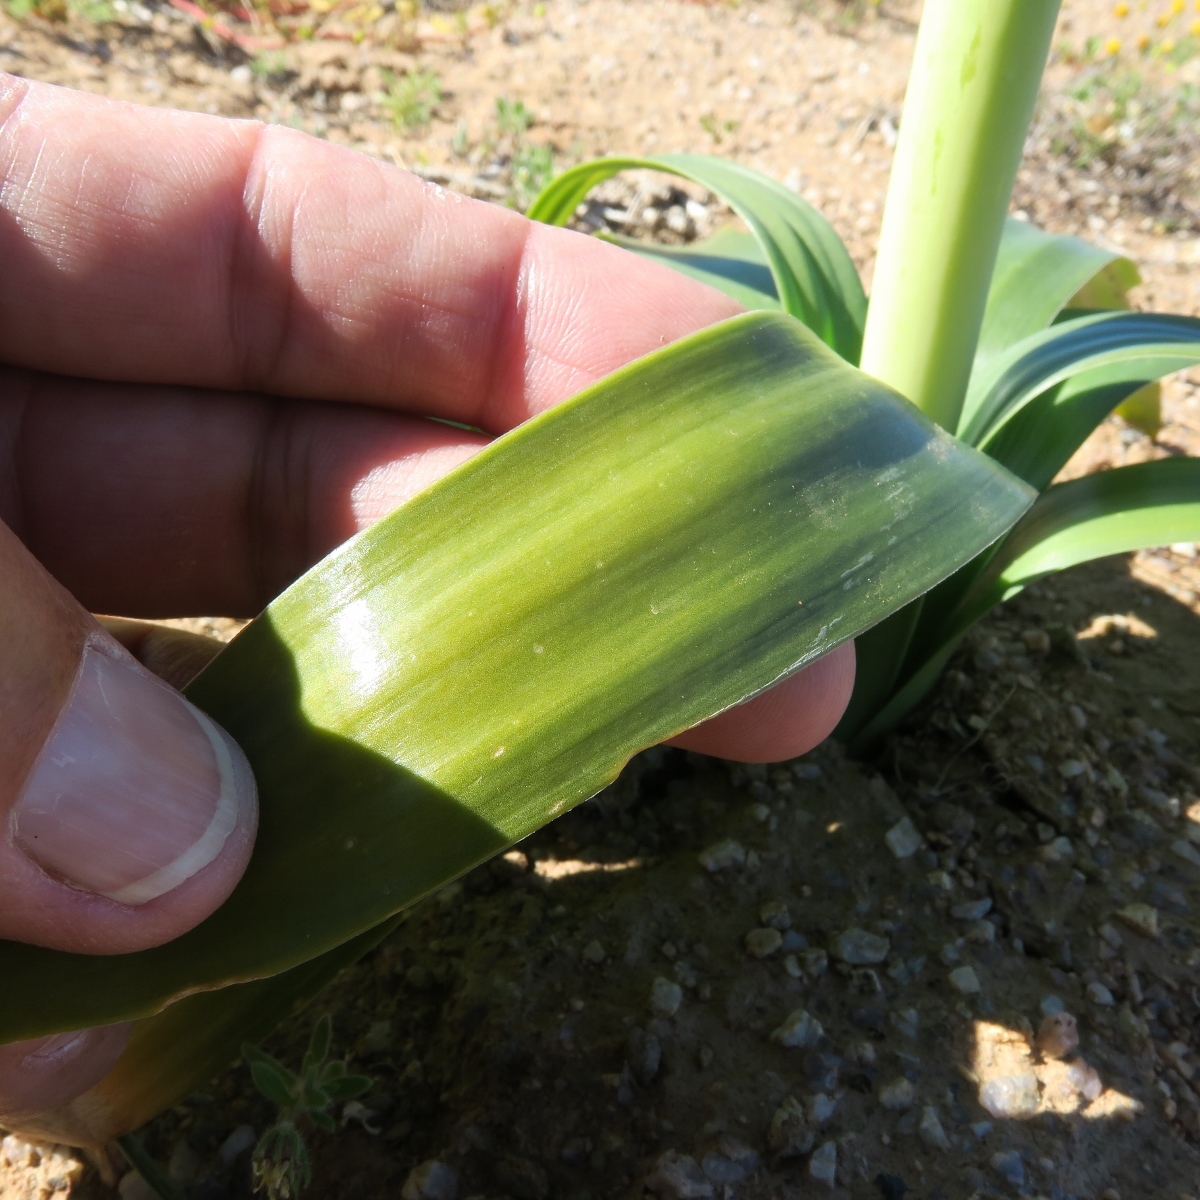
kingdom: Plantae
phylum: Tracheophyta
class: Liliopsida
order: Asparagales
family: Asparagaceae
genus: Ornithogalum
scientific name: Ornithogalum xanthochlorum
